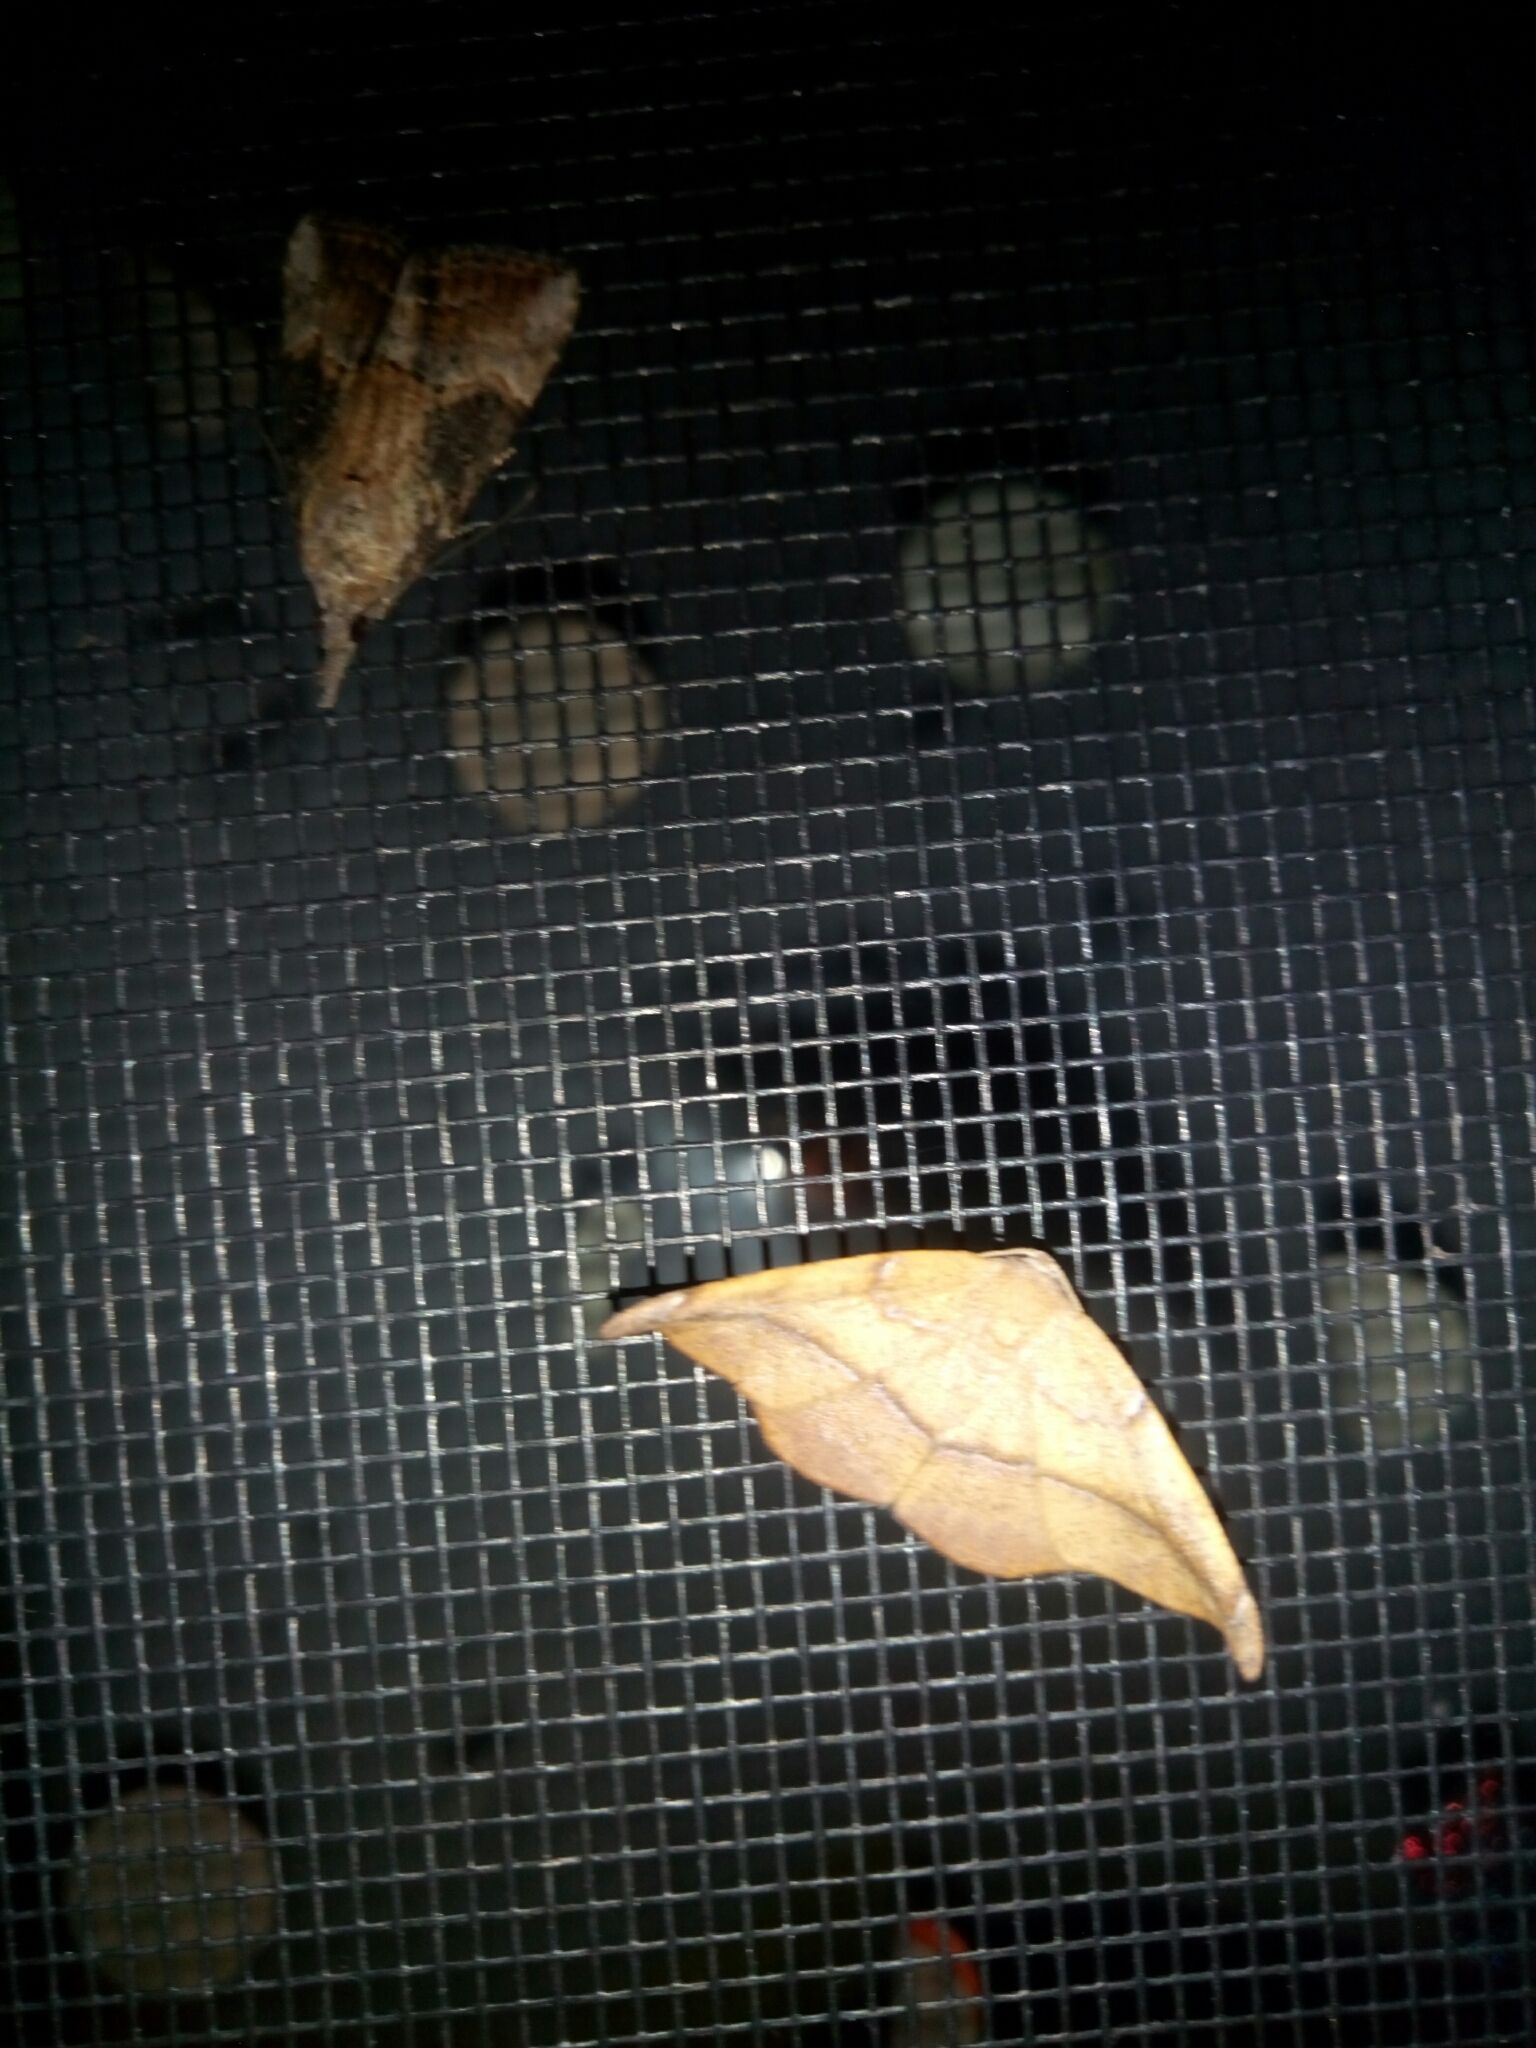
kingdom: Animalia
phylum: Arthropoda
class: Insecta
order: Lepidoptera
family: Geometridae
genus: Patalene
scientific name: Patalene olyzonaria
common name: Juniper geometer moth
